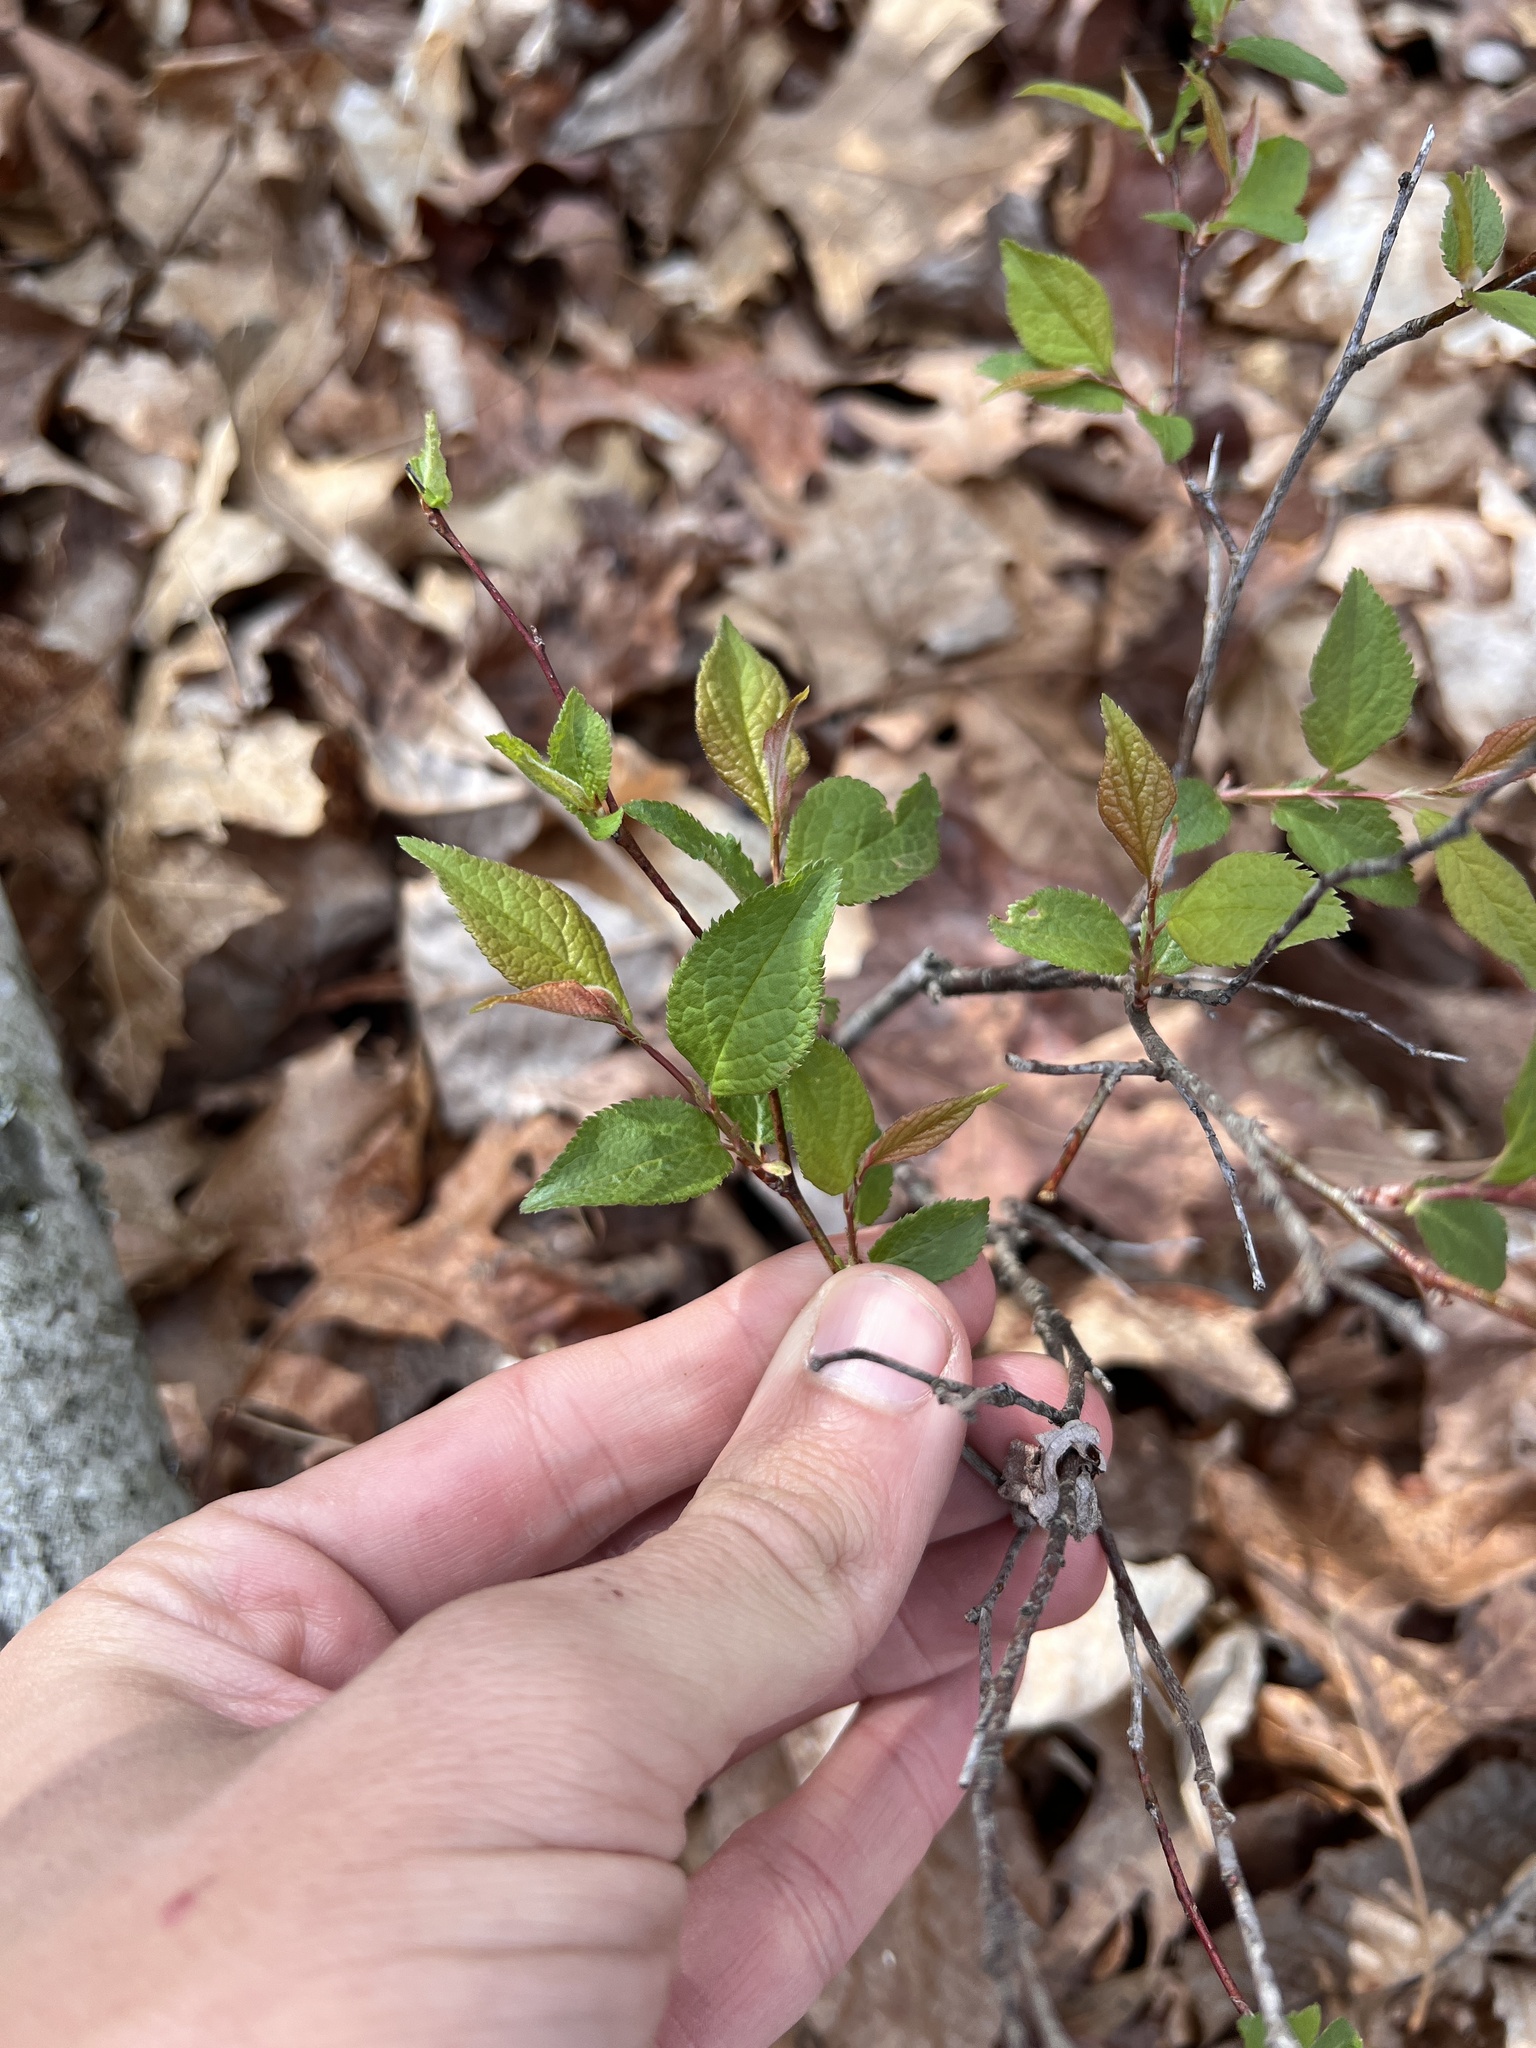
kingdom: Plantae
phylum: Tracheophyta
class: Magnoliopsida
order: Rosales
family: Rosaceae
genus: Prunus
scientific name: Prunus mexicana
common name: Mexican plum
